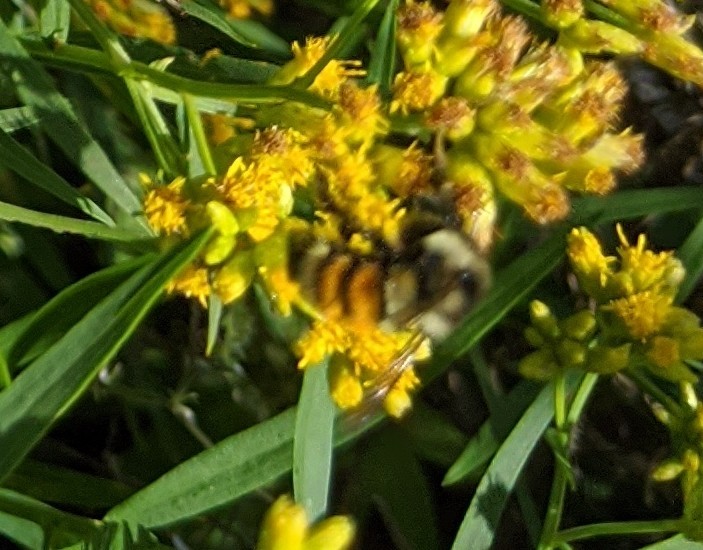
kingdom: Animalia
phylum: Arthropoda
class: Insecta
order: Hymenoptera
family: Apidae
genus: Bombus
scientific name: Bombus ternarius
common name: Tri-colored bumble bee
